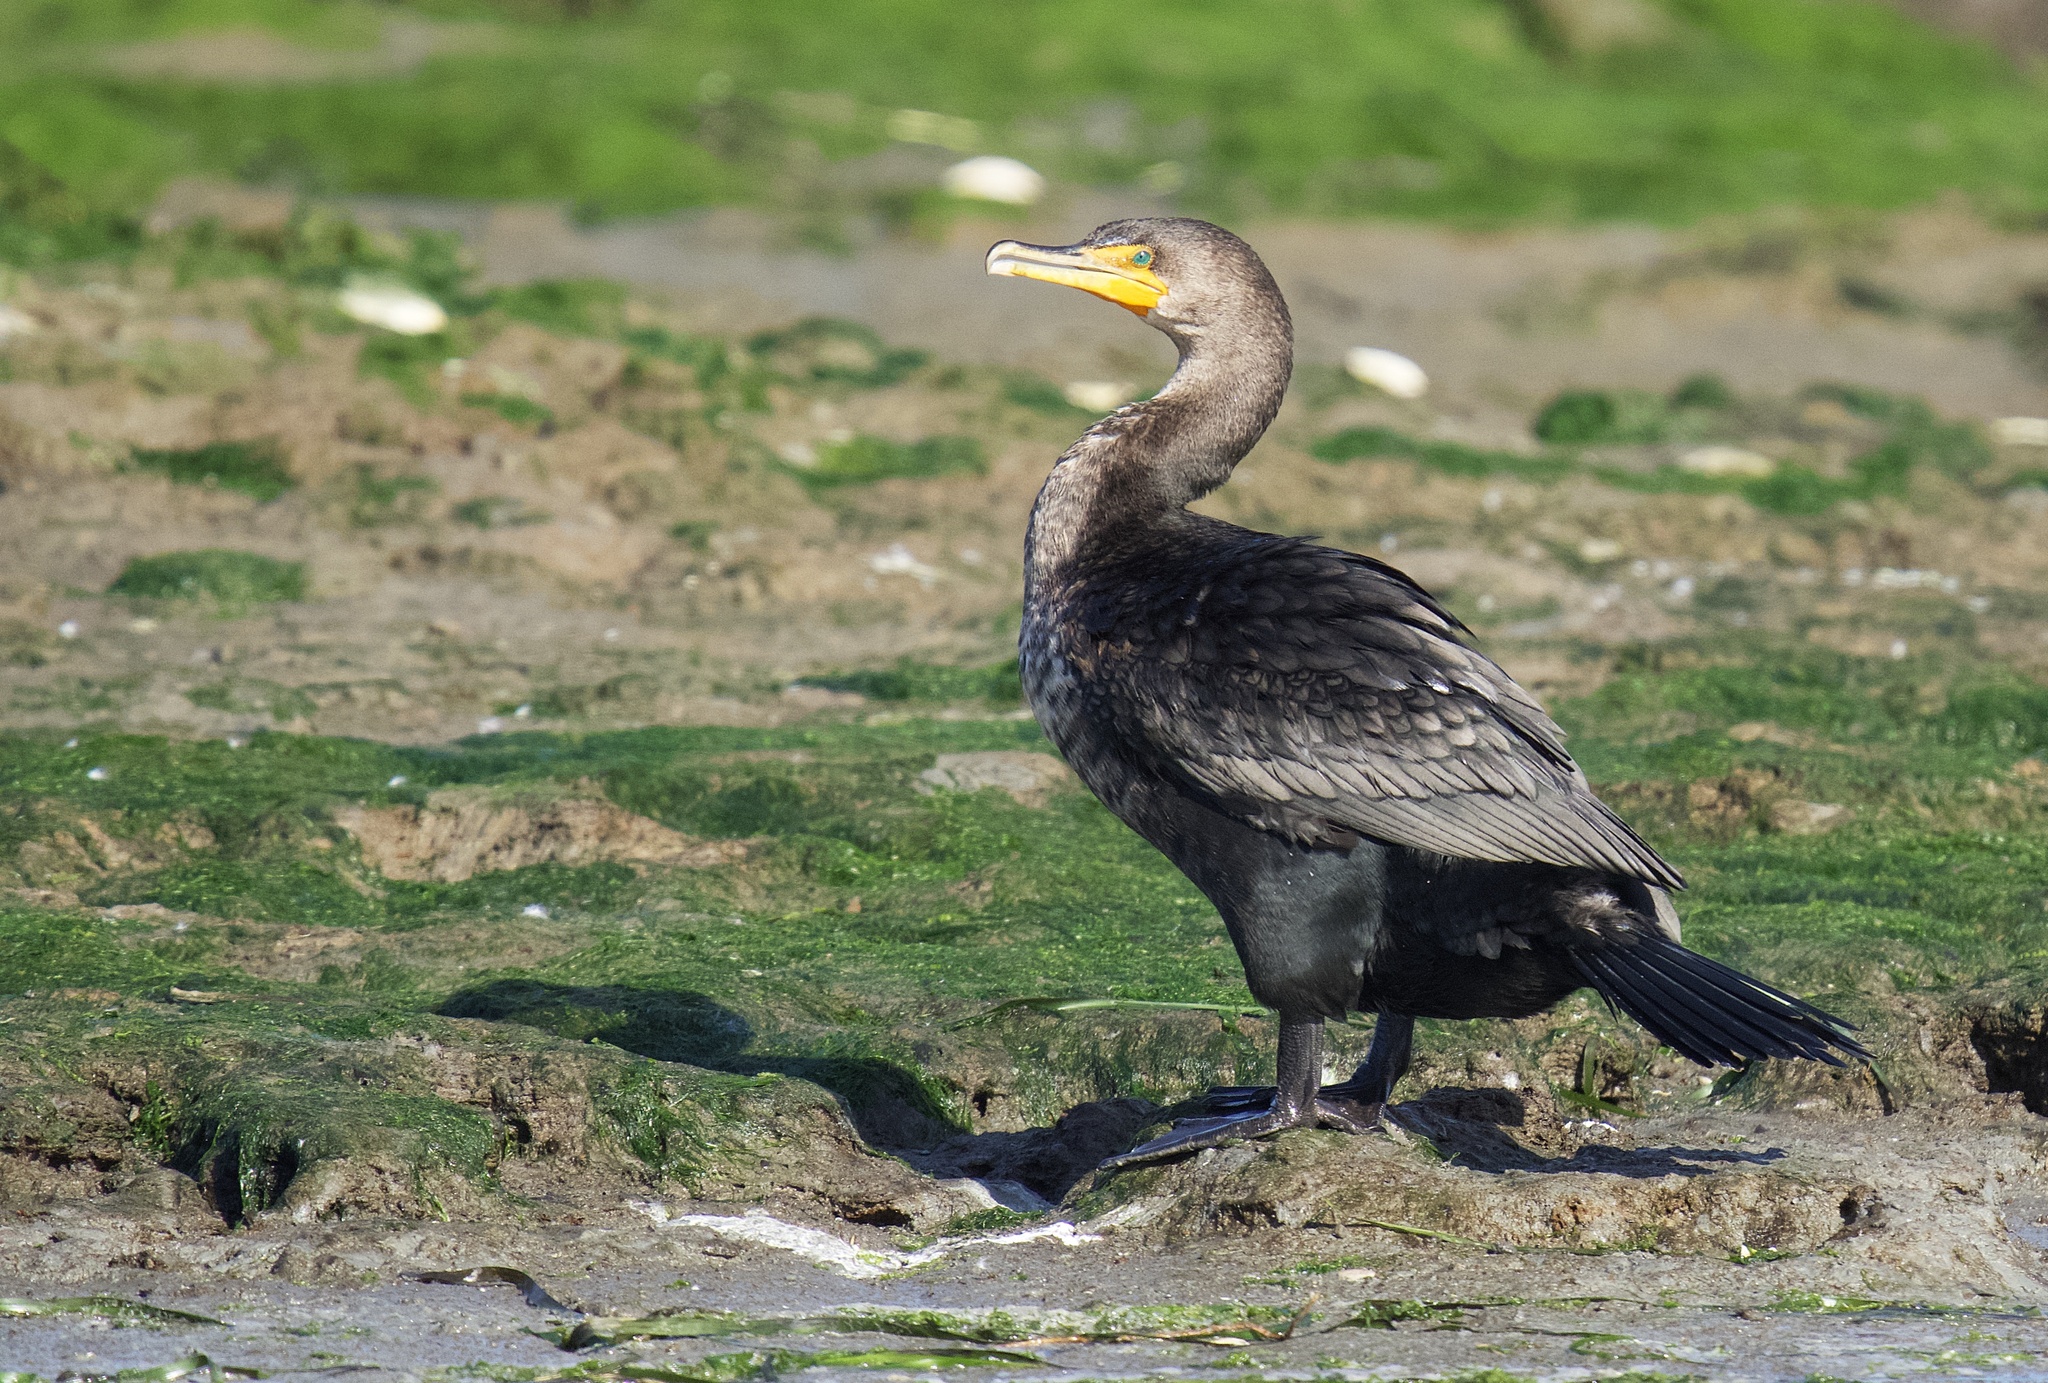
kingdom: Animalia
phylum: Chordata
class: Aves
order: Suliformes
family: Phalacrocoracidae
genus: Phalacrocorax
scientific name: Phalacrocorax auritus
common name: Double-crested cormorant
